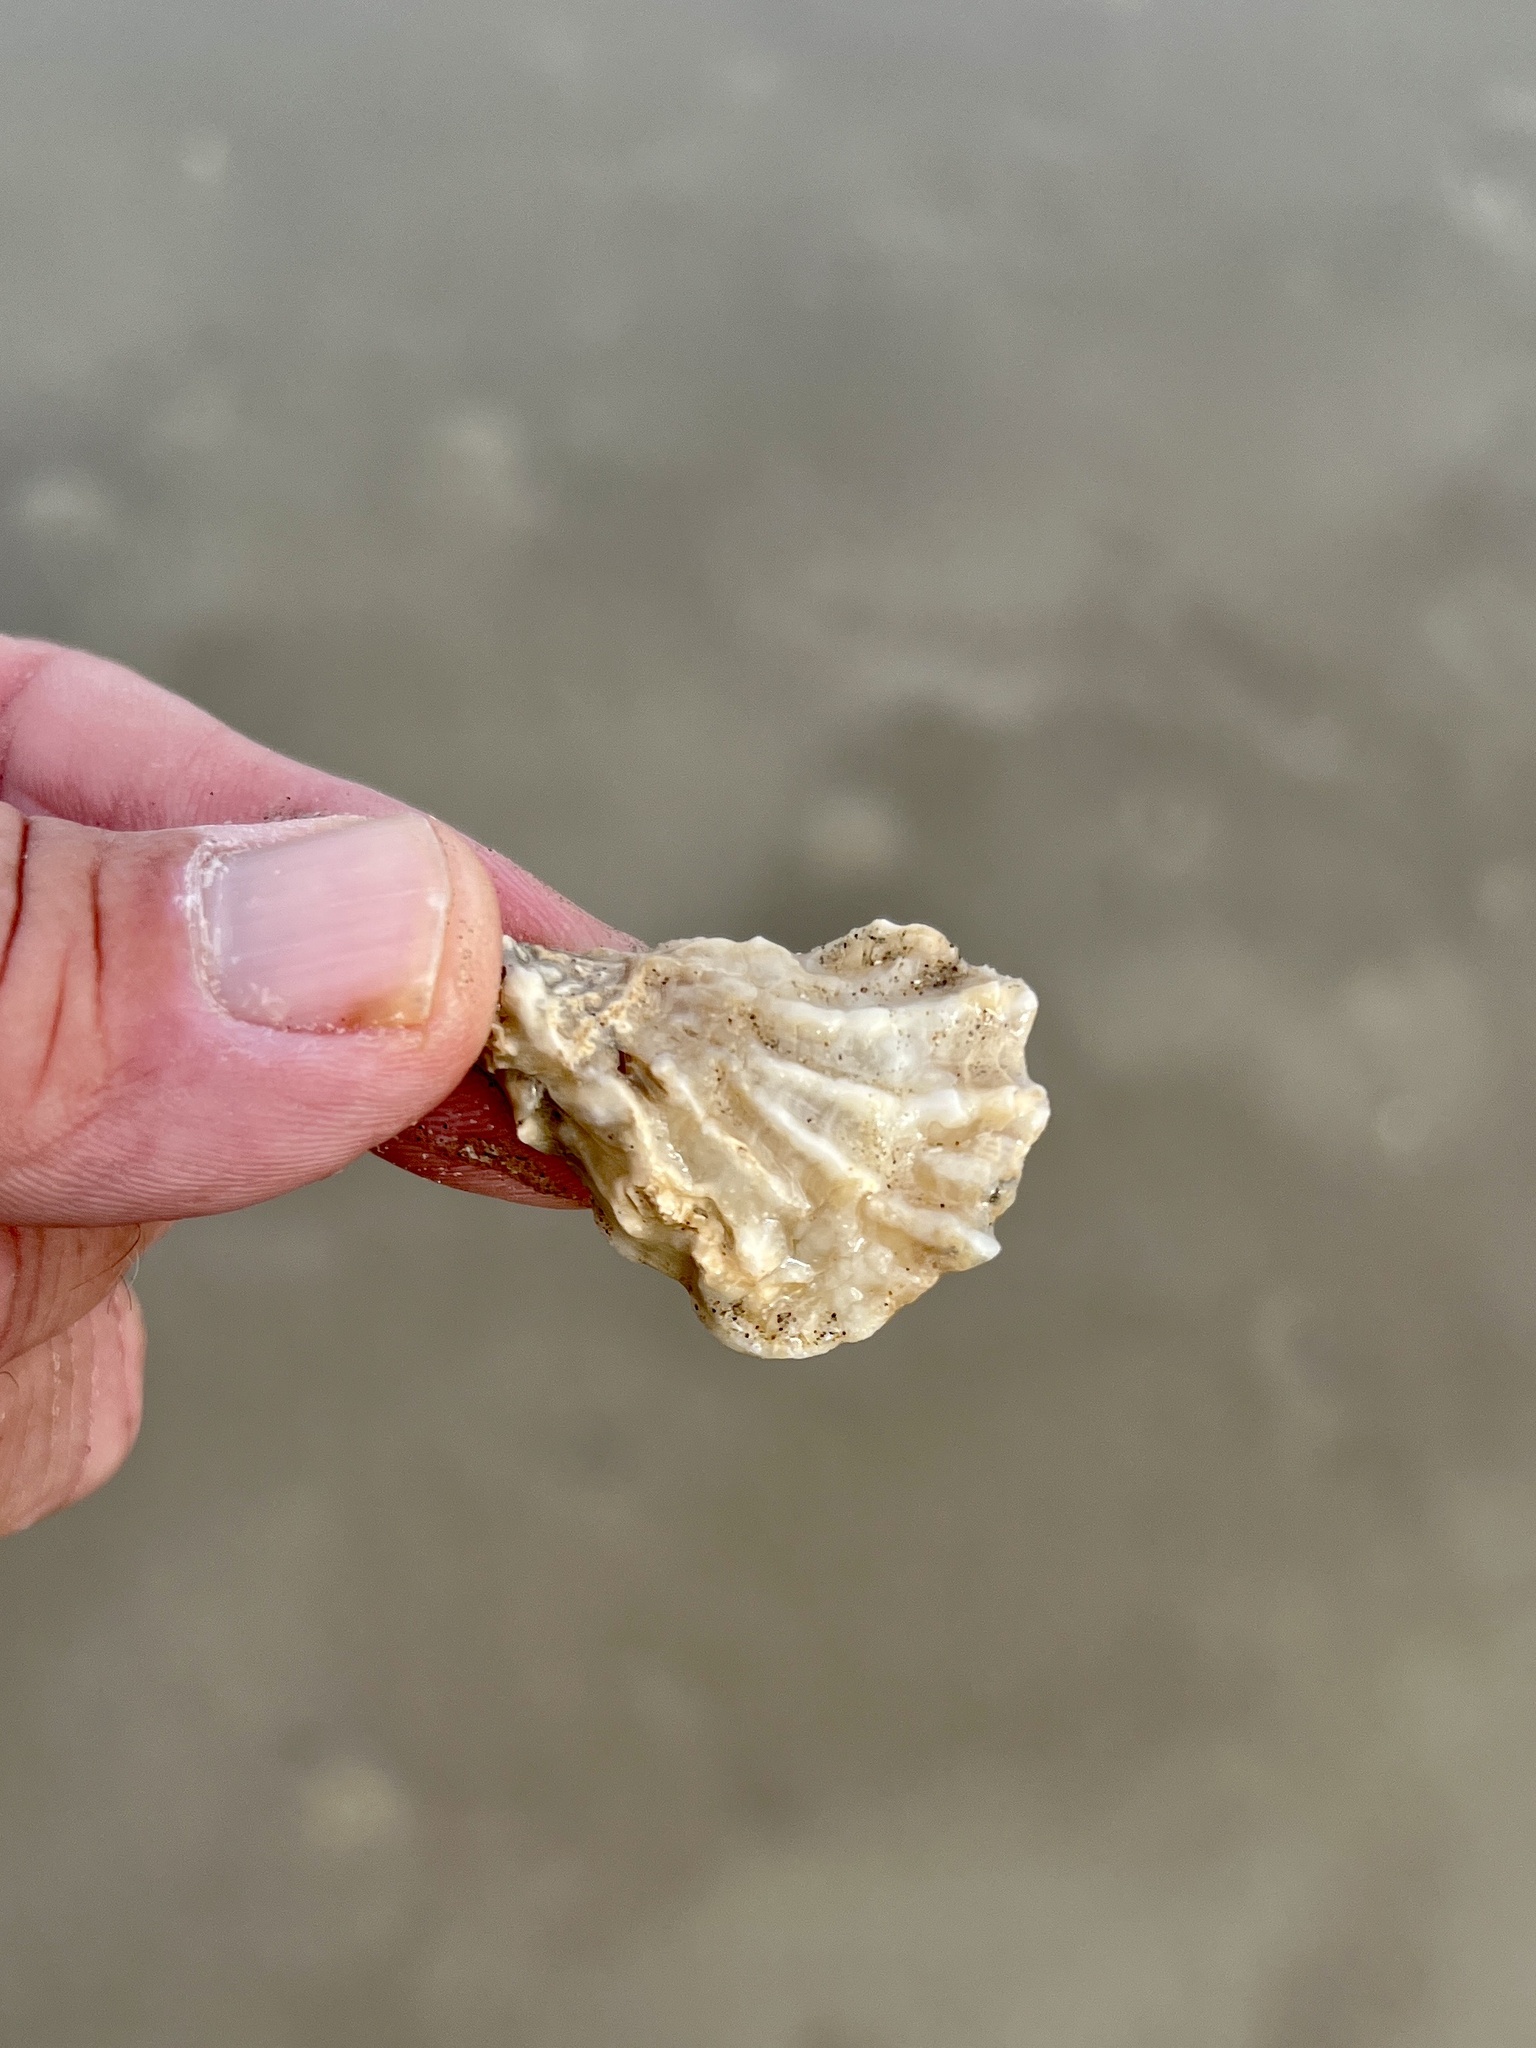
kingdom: Animalia
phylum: Mollusca
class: Bivalvia
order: Ostreida
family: Ostreidae
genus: Crassostrea
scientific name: Crassostrea virginica
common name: American oyster
